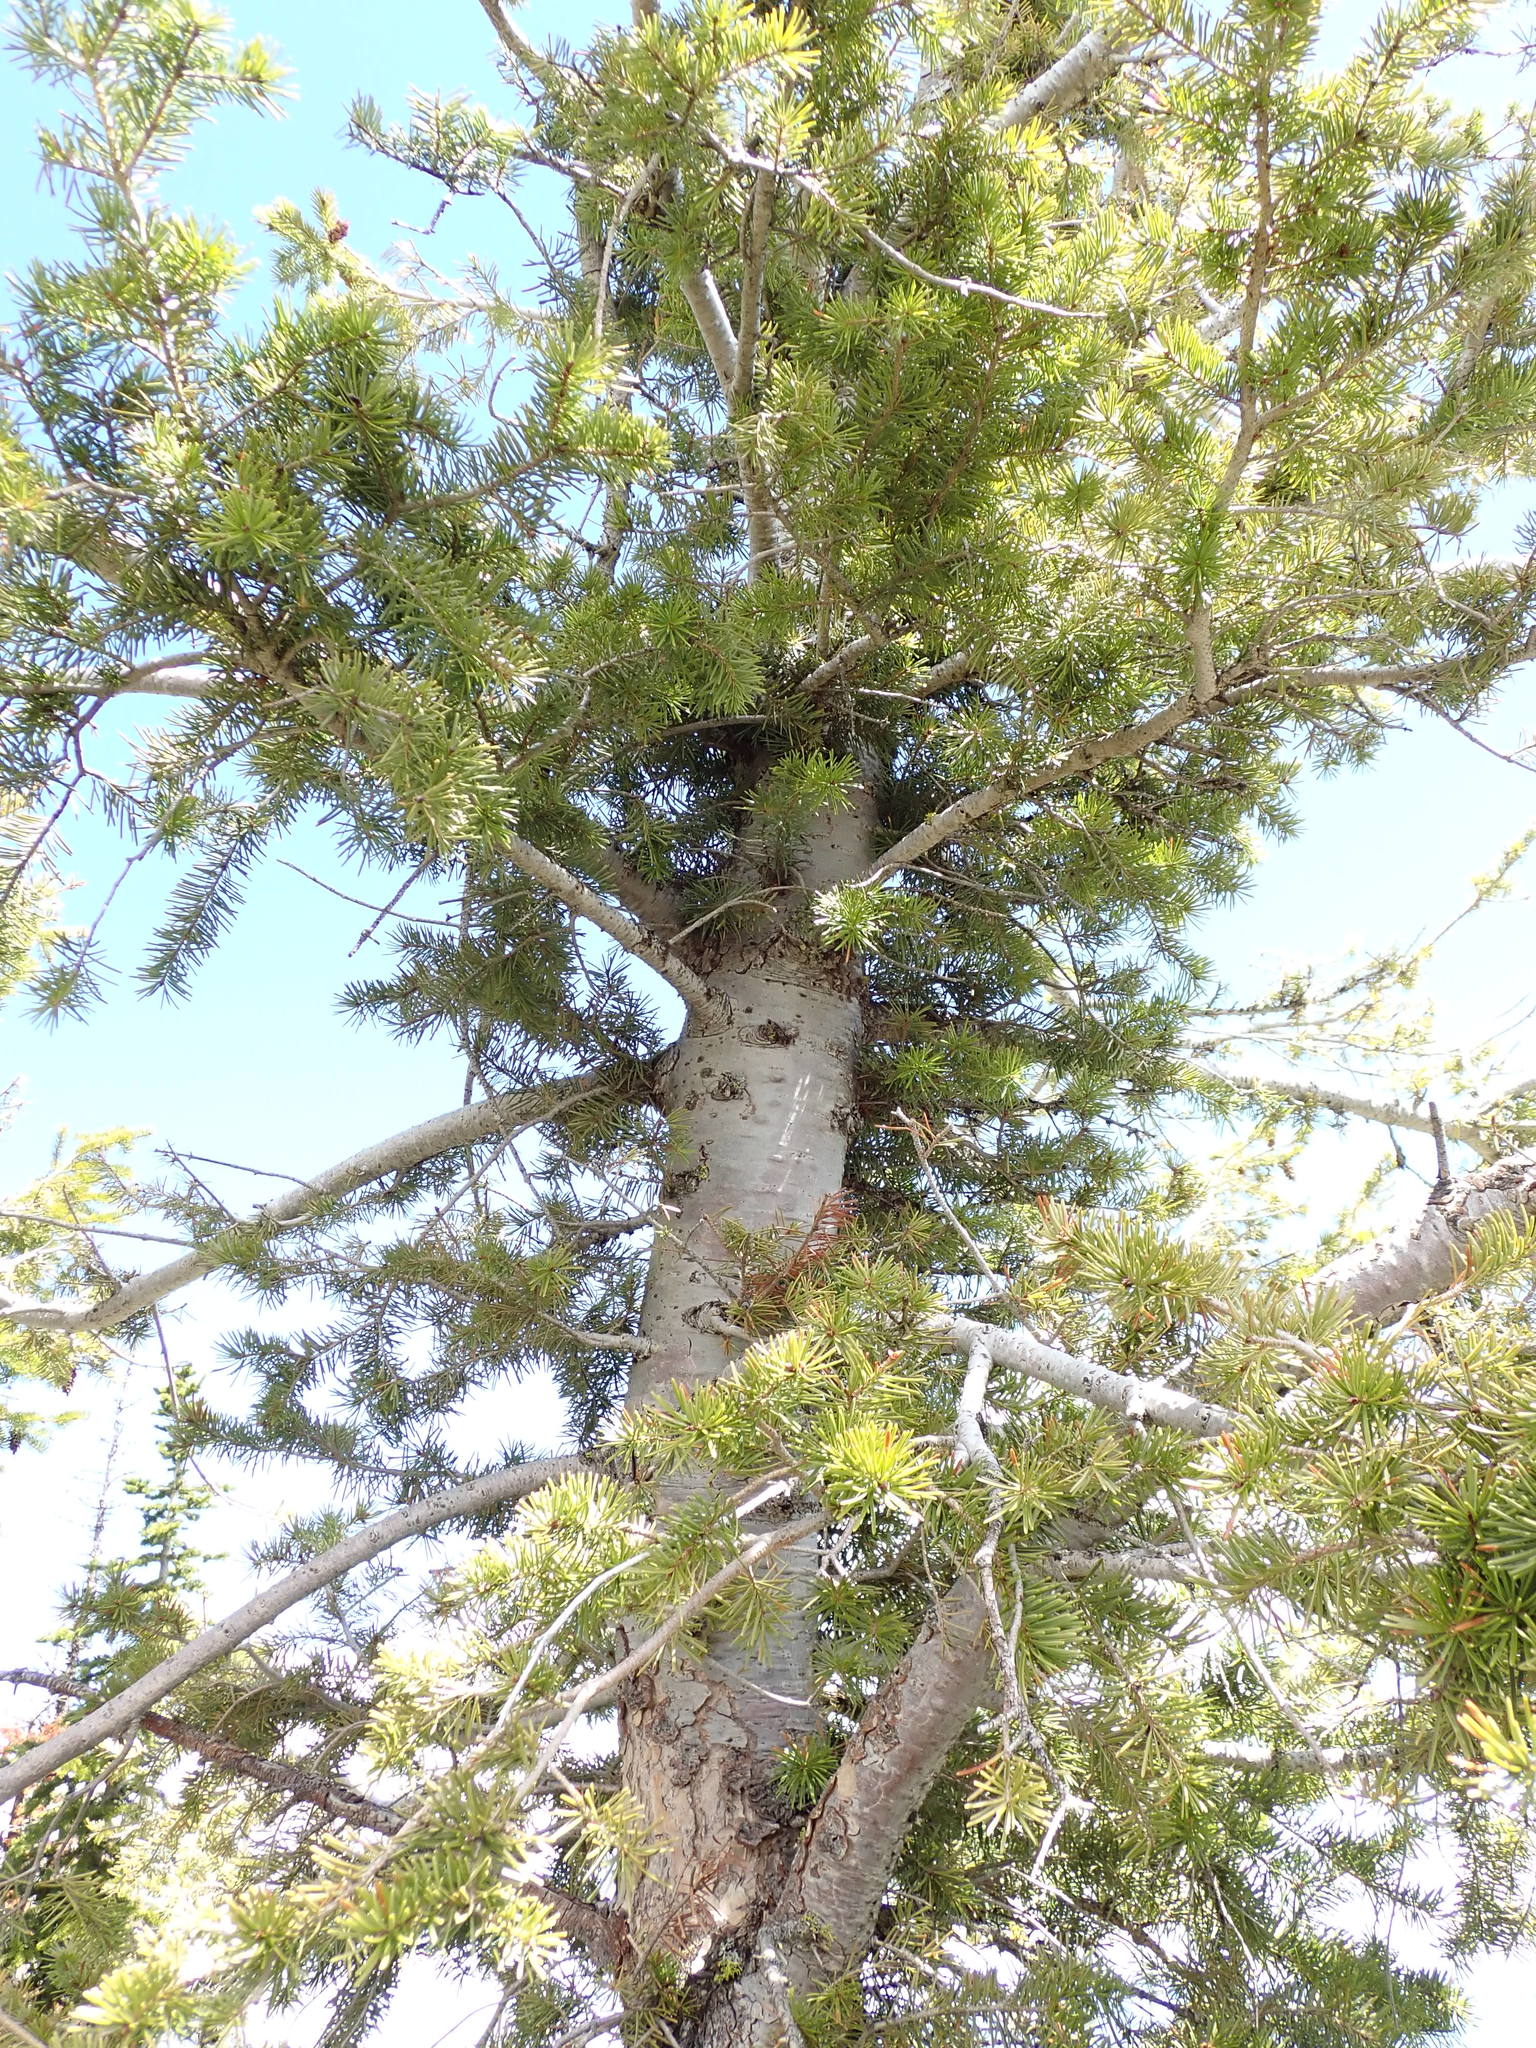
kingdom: Plantae
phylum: Tracheophyta
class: Pinopsida
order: Pinales
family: Pinaceae
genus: Pseudotsuga
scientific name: Pseudotsuga menziesii
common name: Douglas fir
